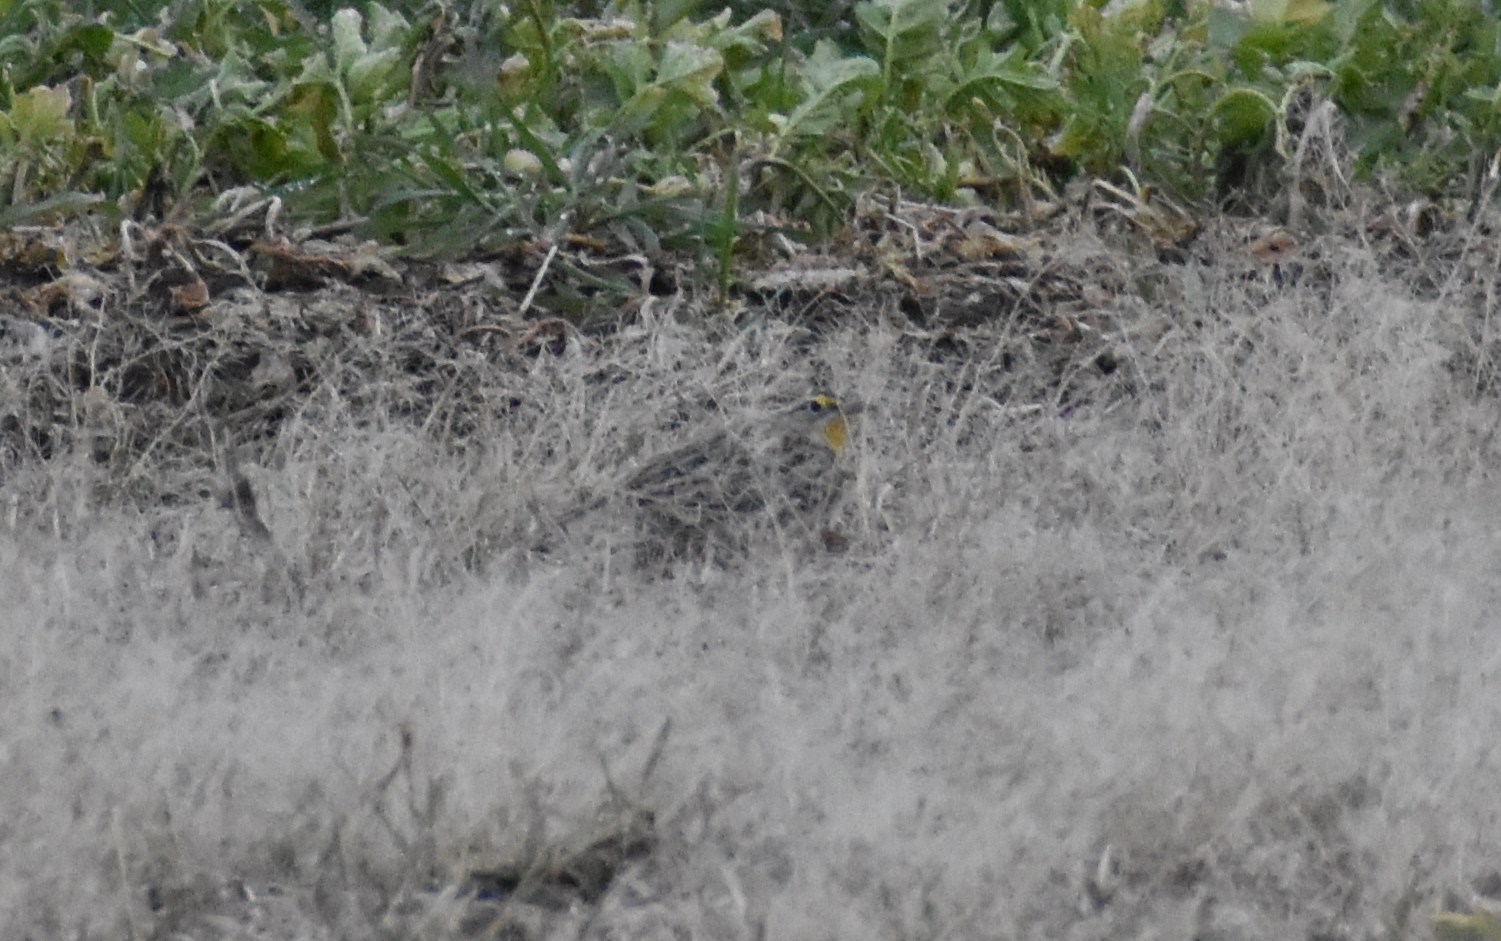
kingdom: Animalia
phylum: Chordata
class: Aves
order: Passeriformes
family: Icteridae
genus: Sturnella
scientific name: Sturnella neglecta
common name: Western meadowlark
